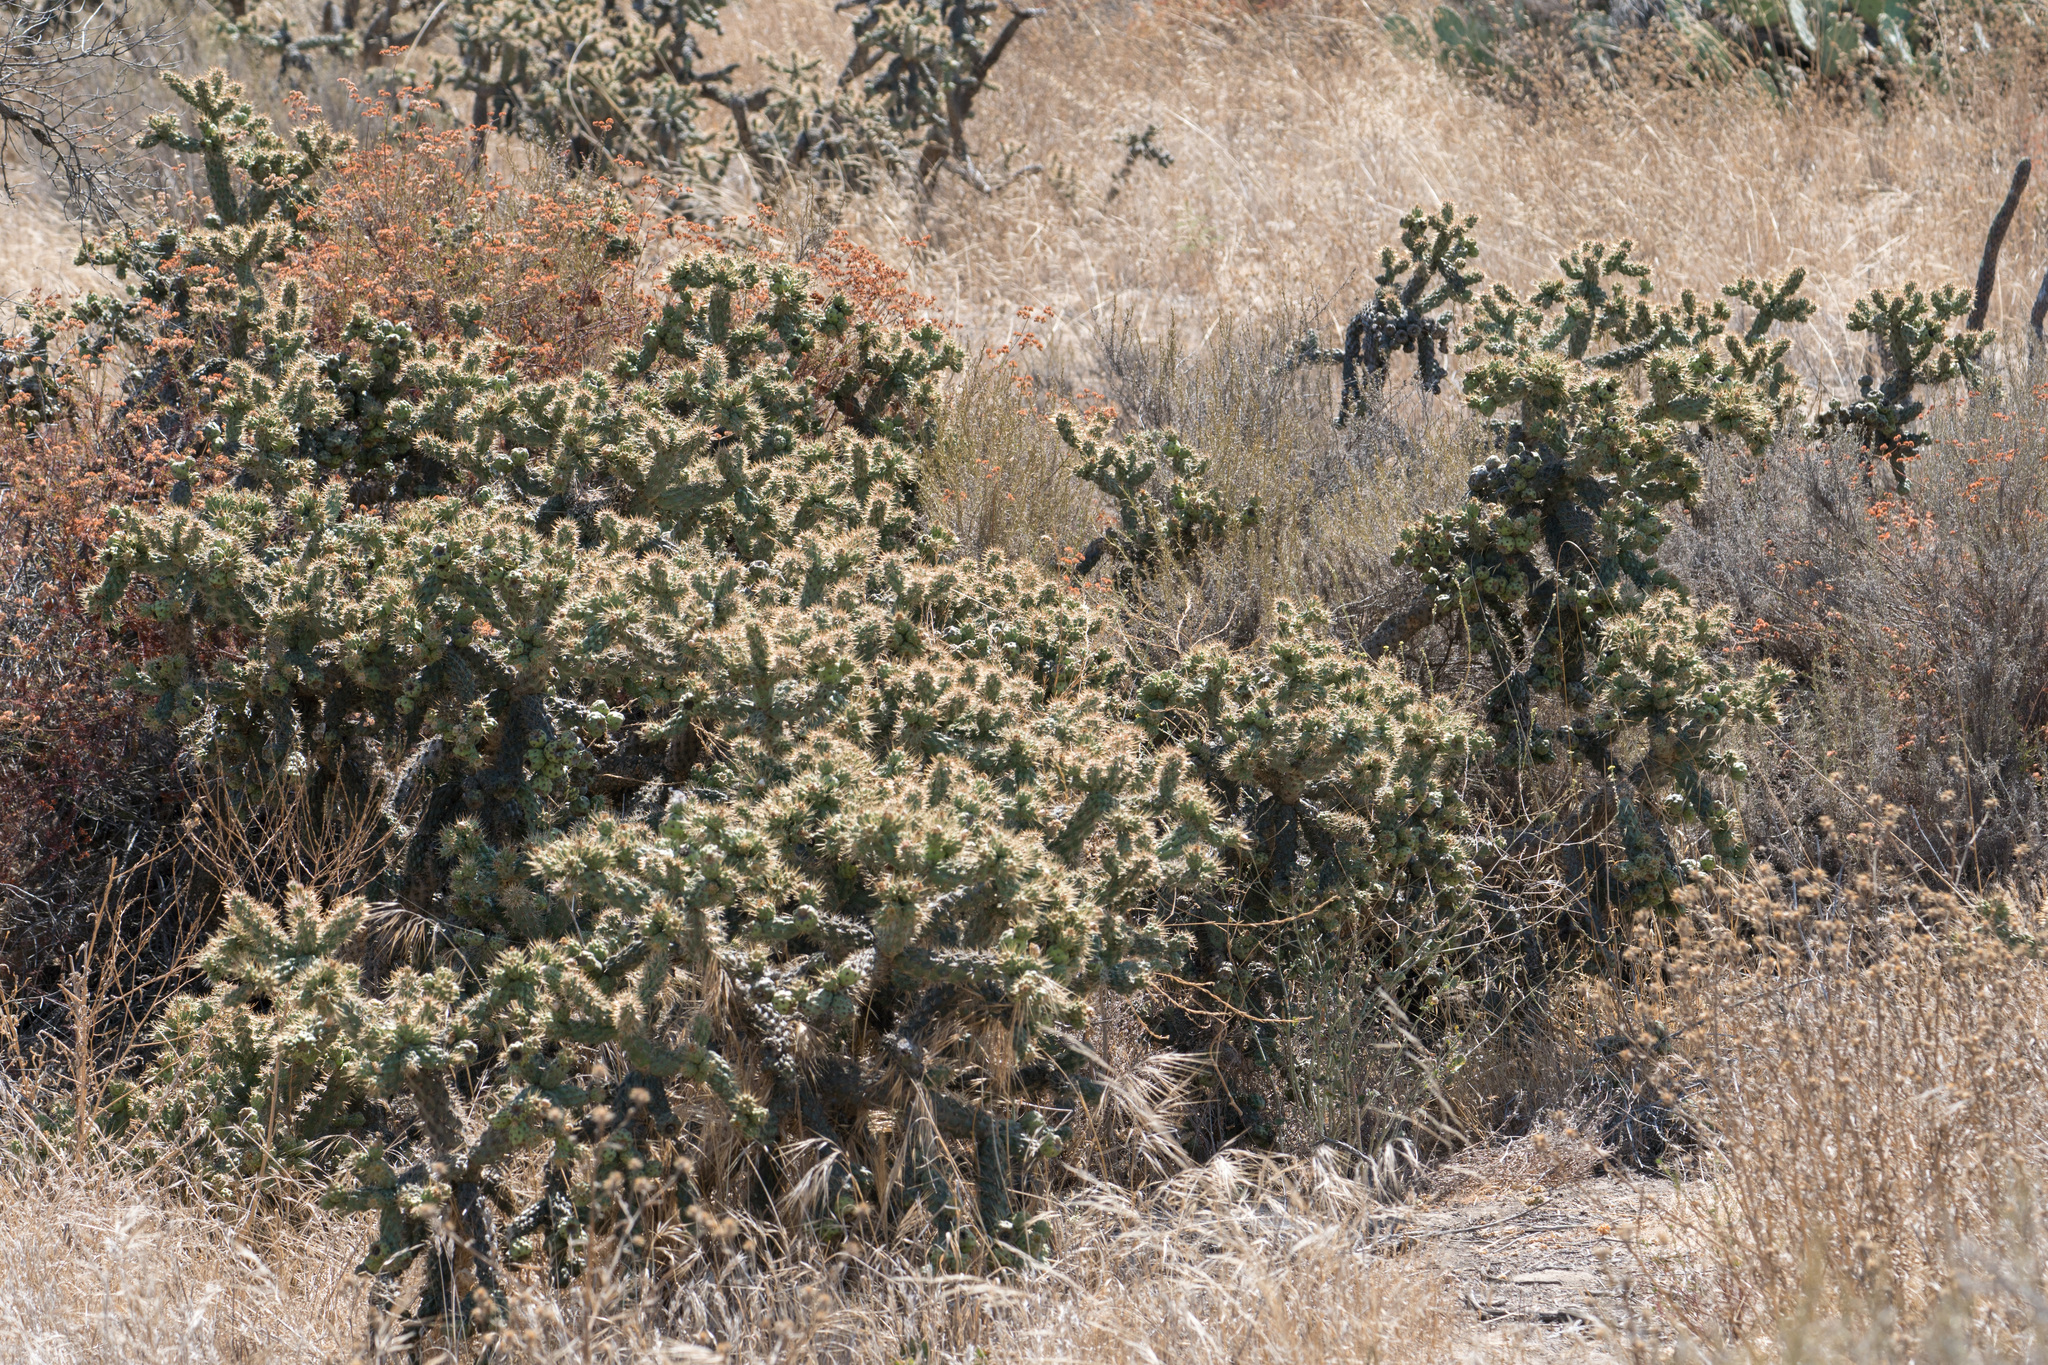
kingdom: Plantae
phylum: Tracheophyta
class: Magnoliopsida
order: Caryophyllales
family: Cactaceae
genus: Cylindropuntia
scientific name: Cylindropuntia prolifera
